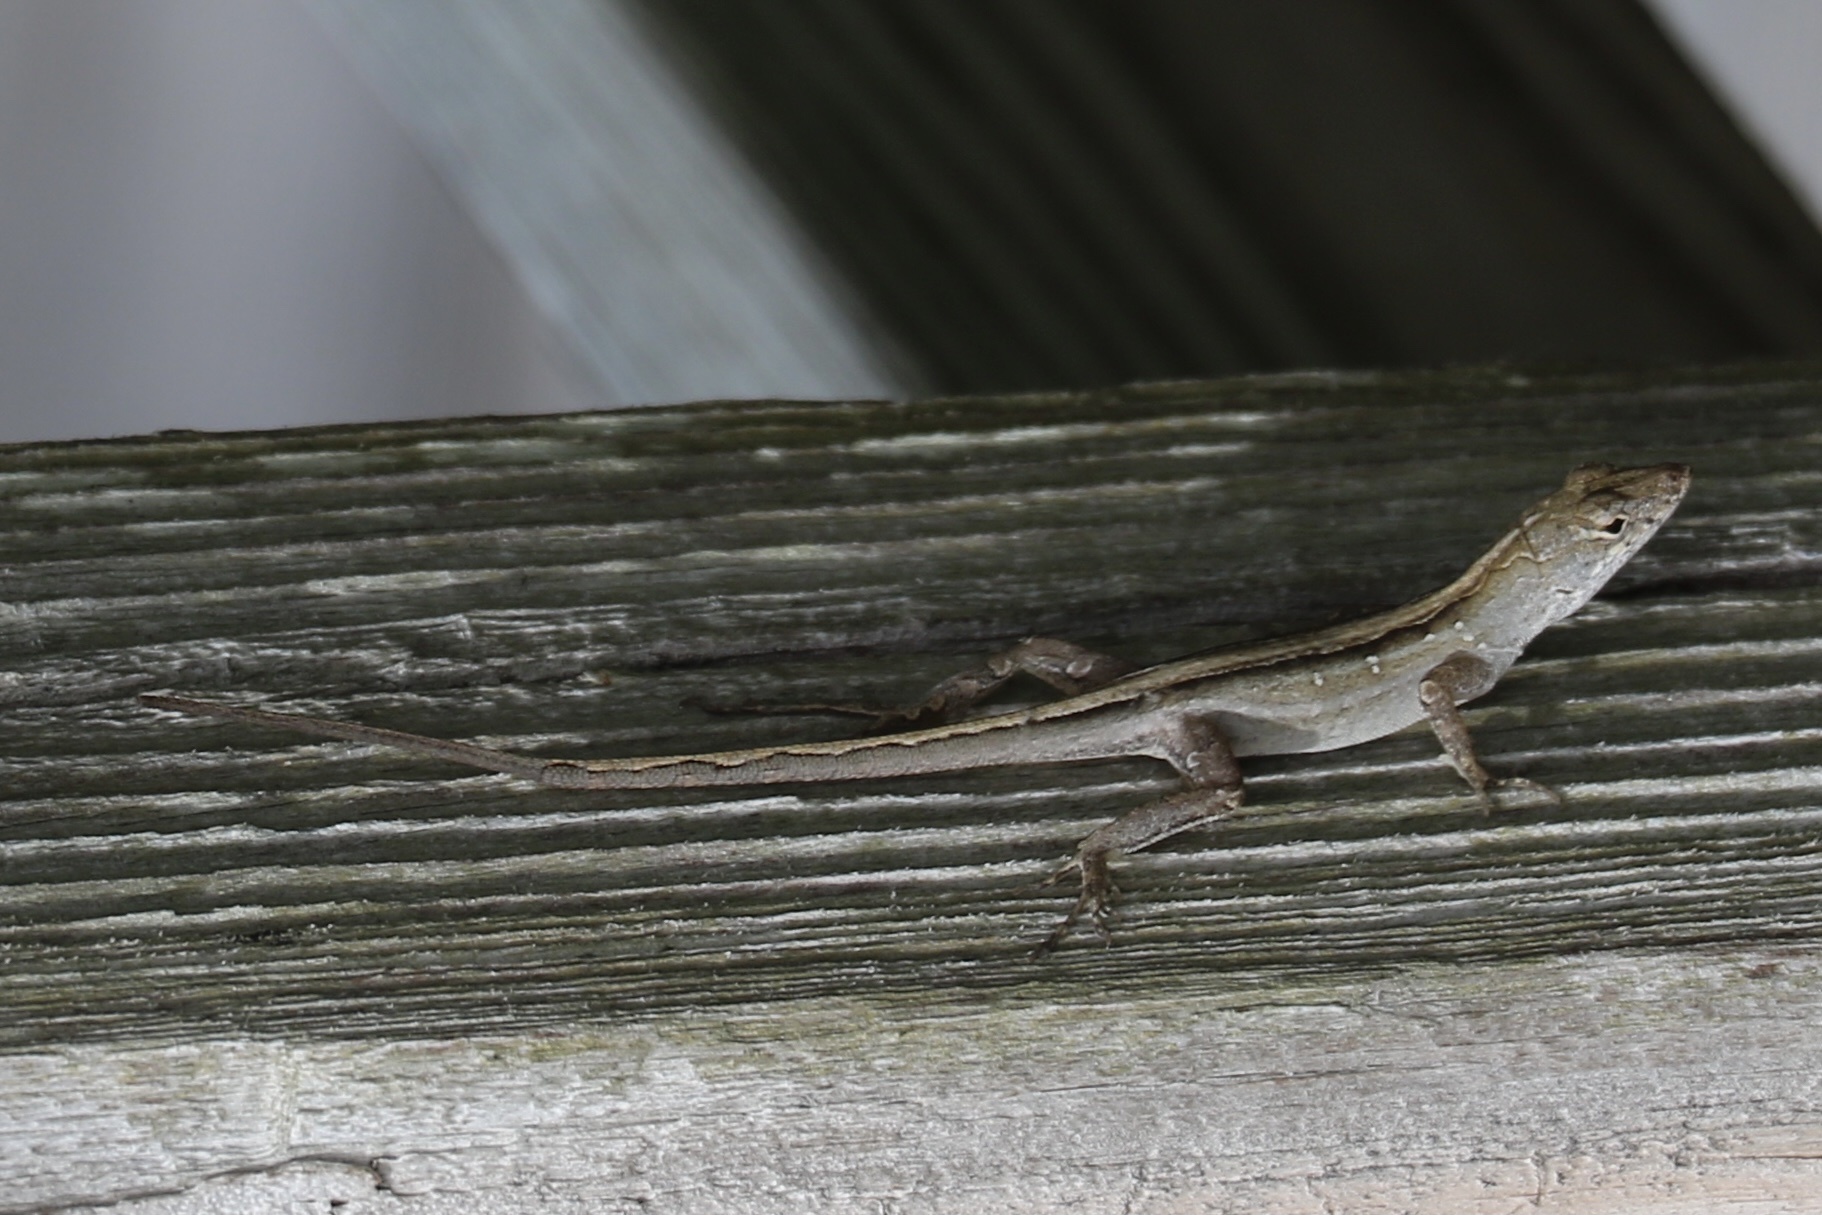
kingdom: Animalia
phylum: Chordata
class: Squamata
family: Dactyloidae
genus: Anolis
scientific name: Anolis sagrei
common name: Brown anole
